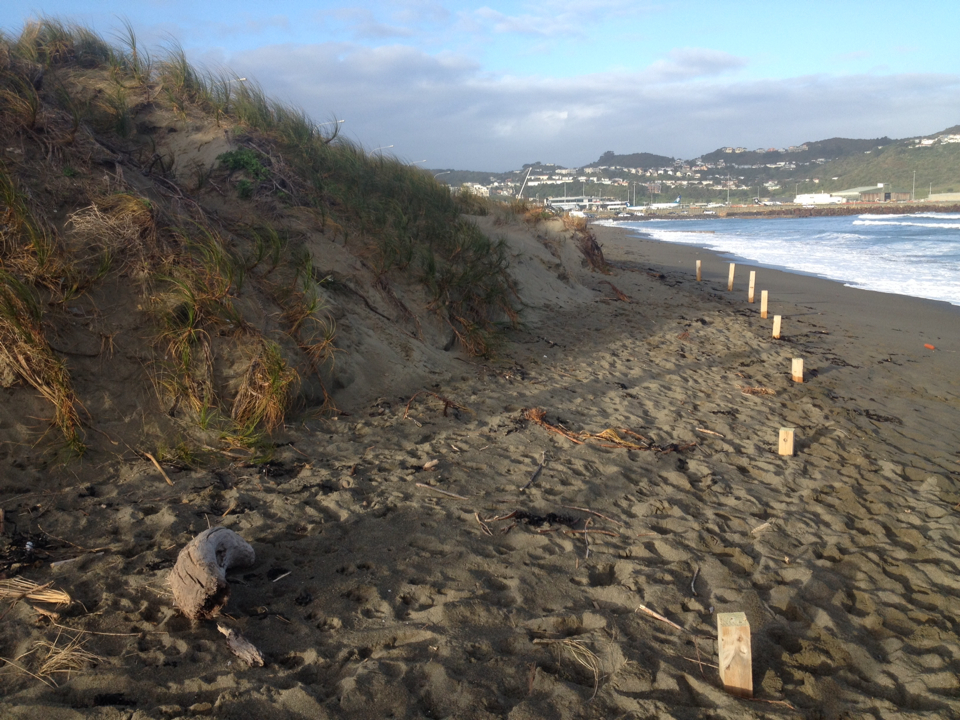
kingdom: Plantae
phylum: Tracheophyta
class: Liliopsida
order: Poales
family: Cyperaceae
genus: Ficinia
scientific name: Ficinia spiralis
